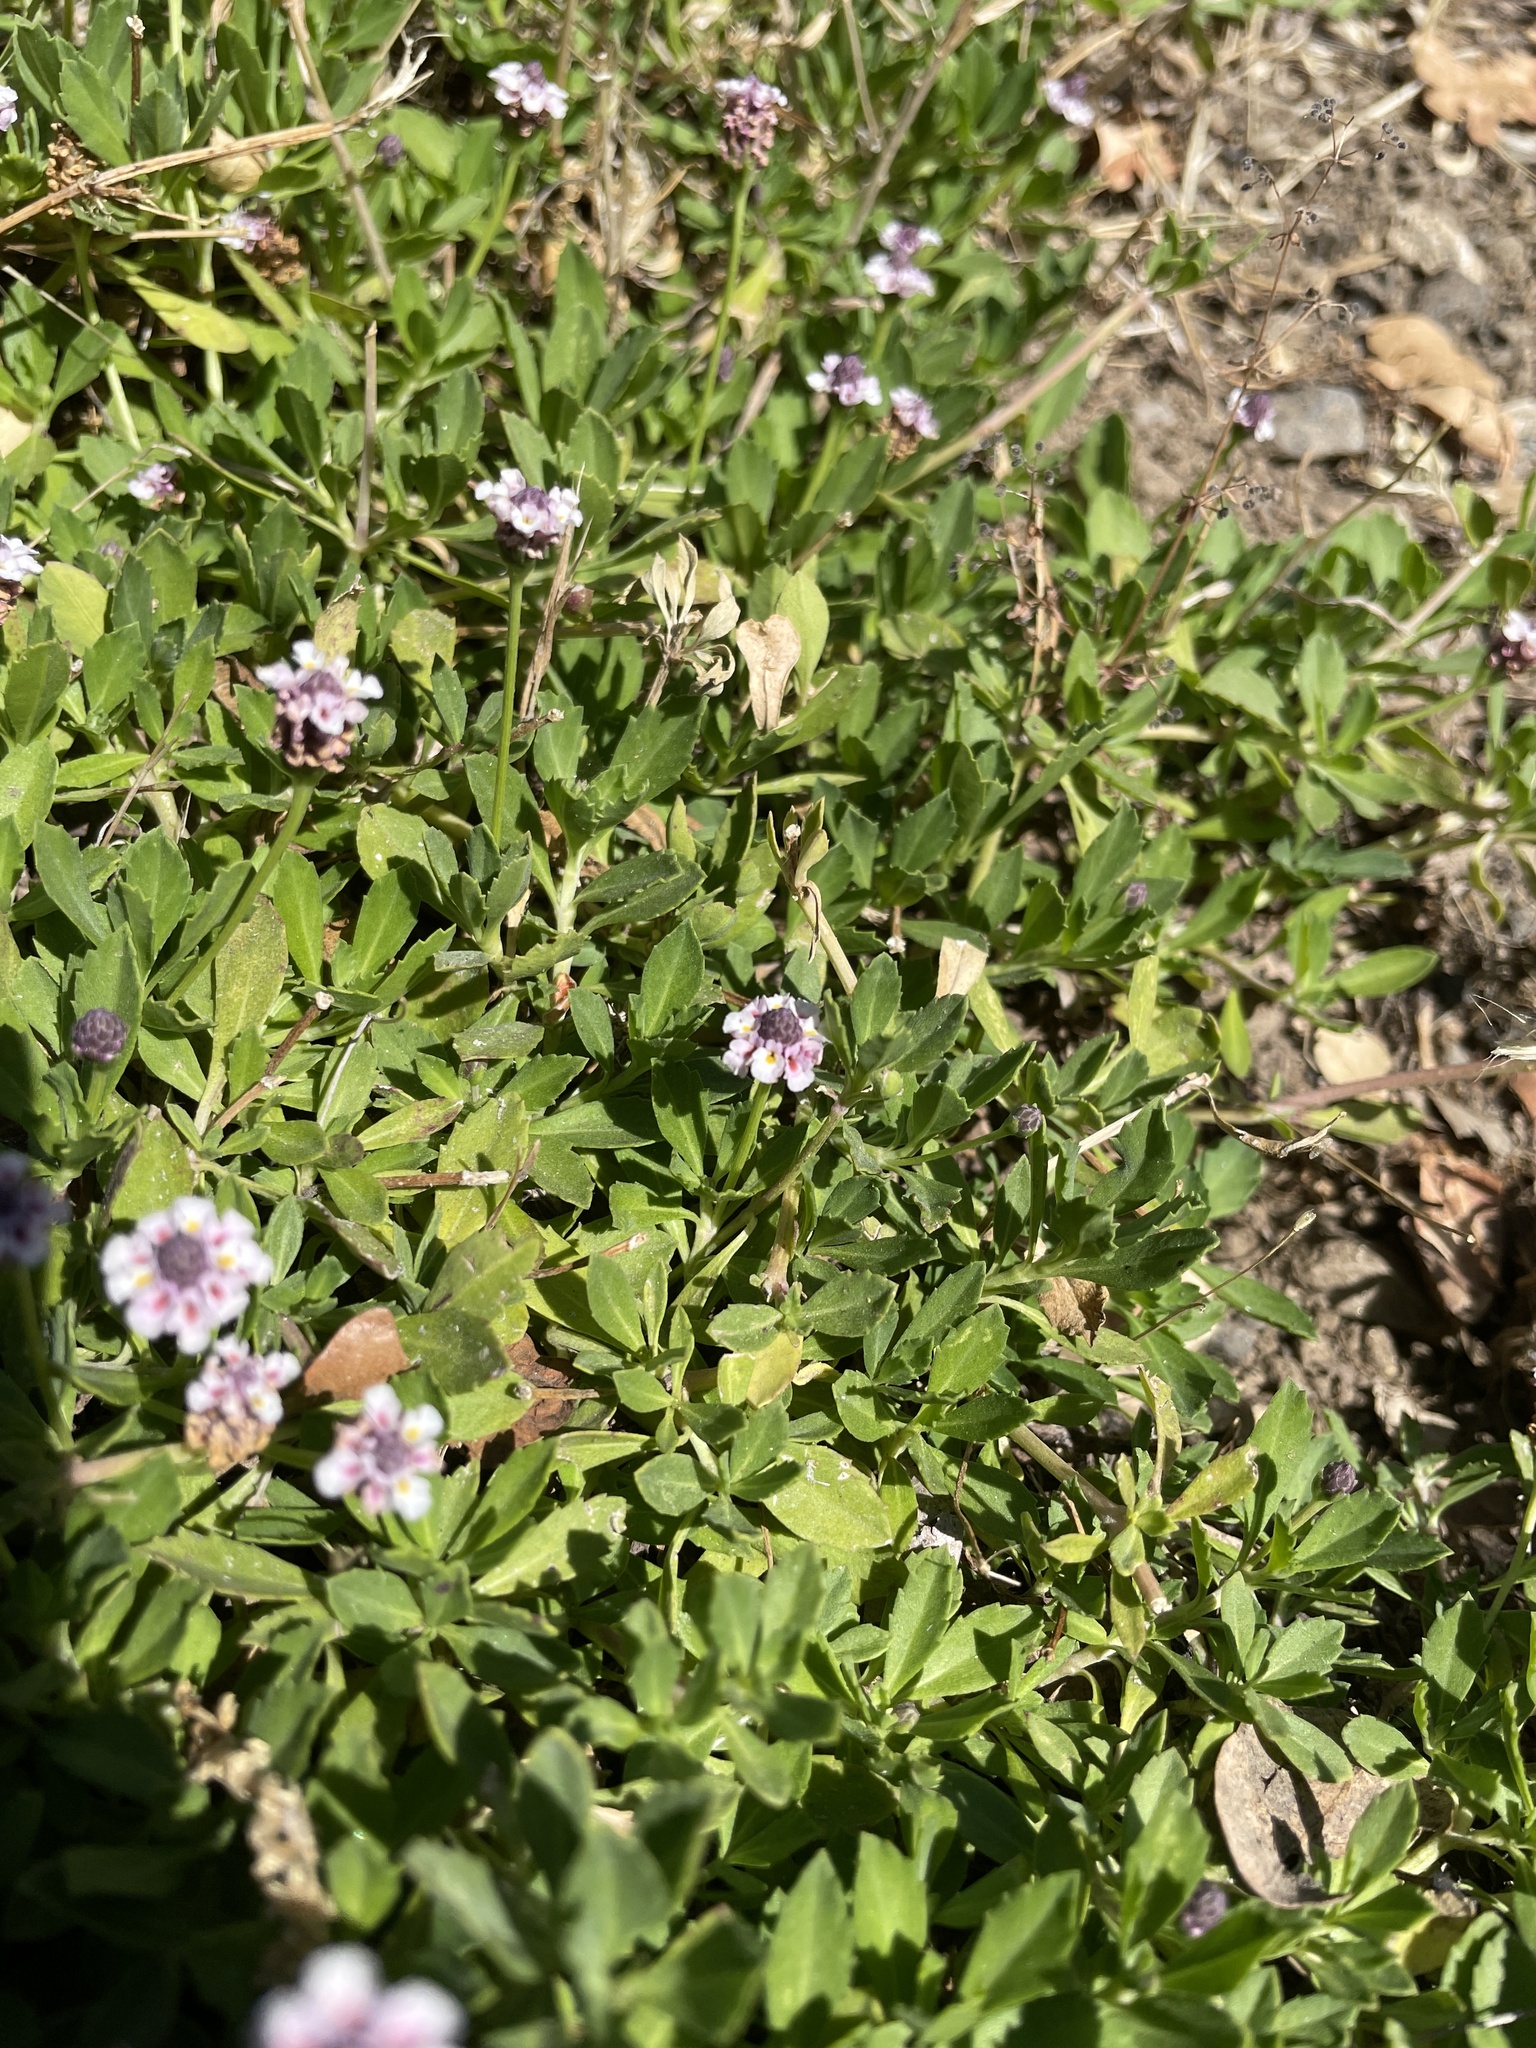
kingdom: Plantae
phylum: Tracheophyta
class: Magnoliopsida
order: Lamiales
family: Verbenaceae
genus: Phyla
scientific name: Phyla nodiflora
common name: Frogfruit
